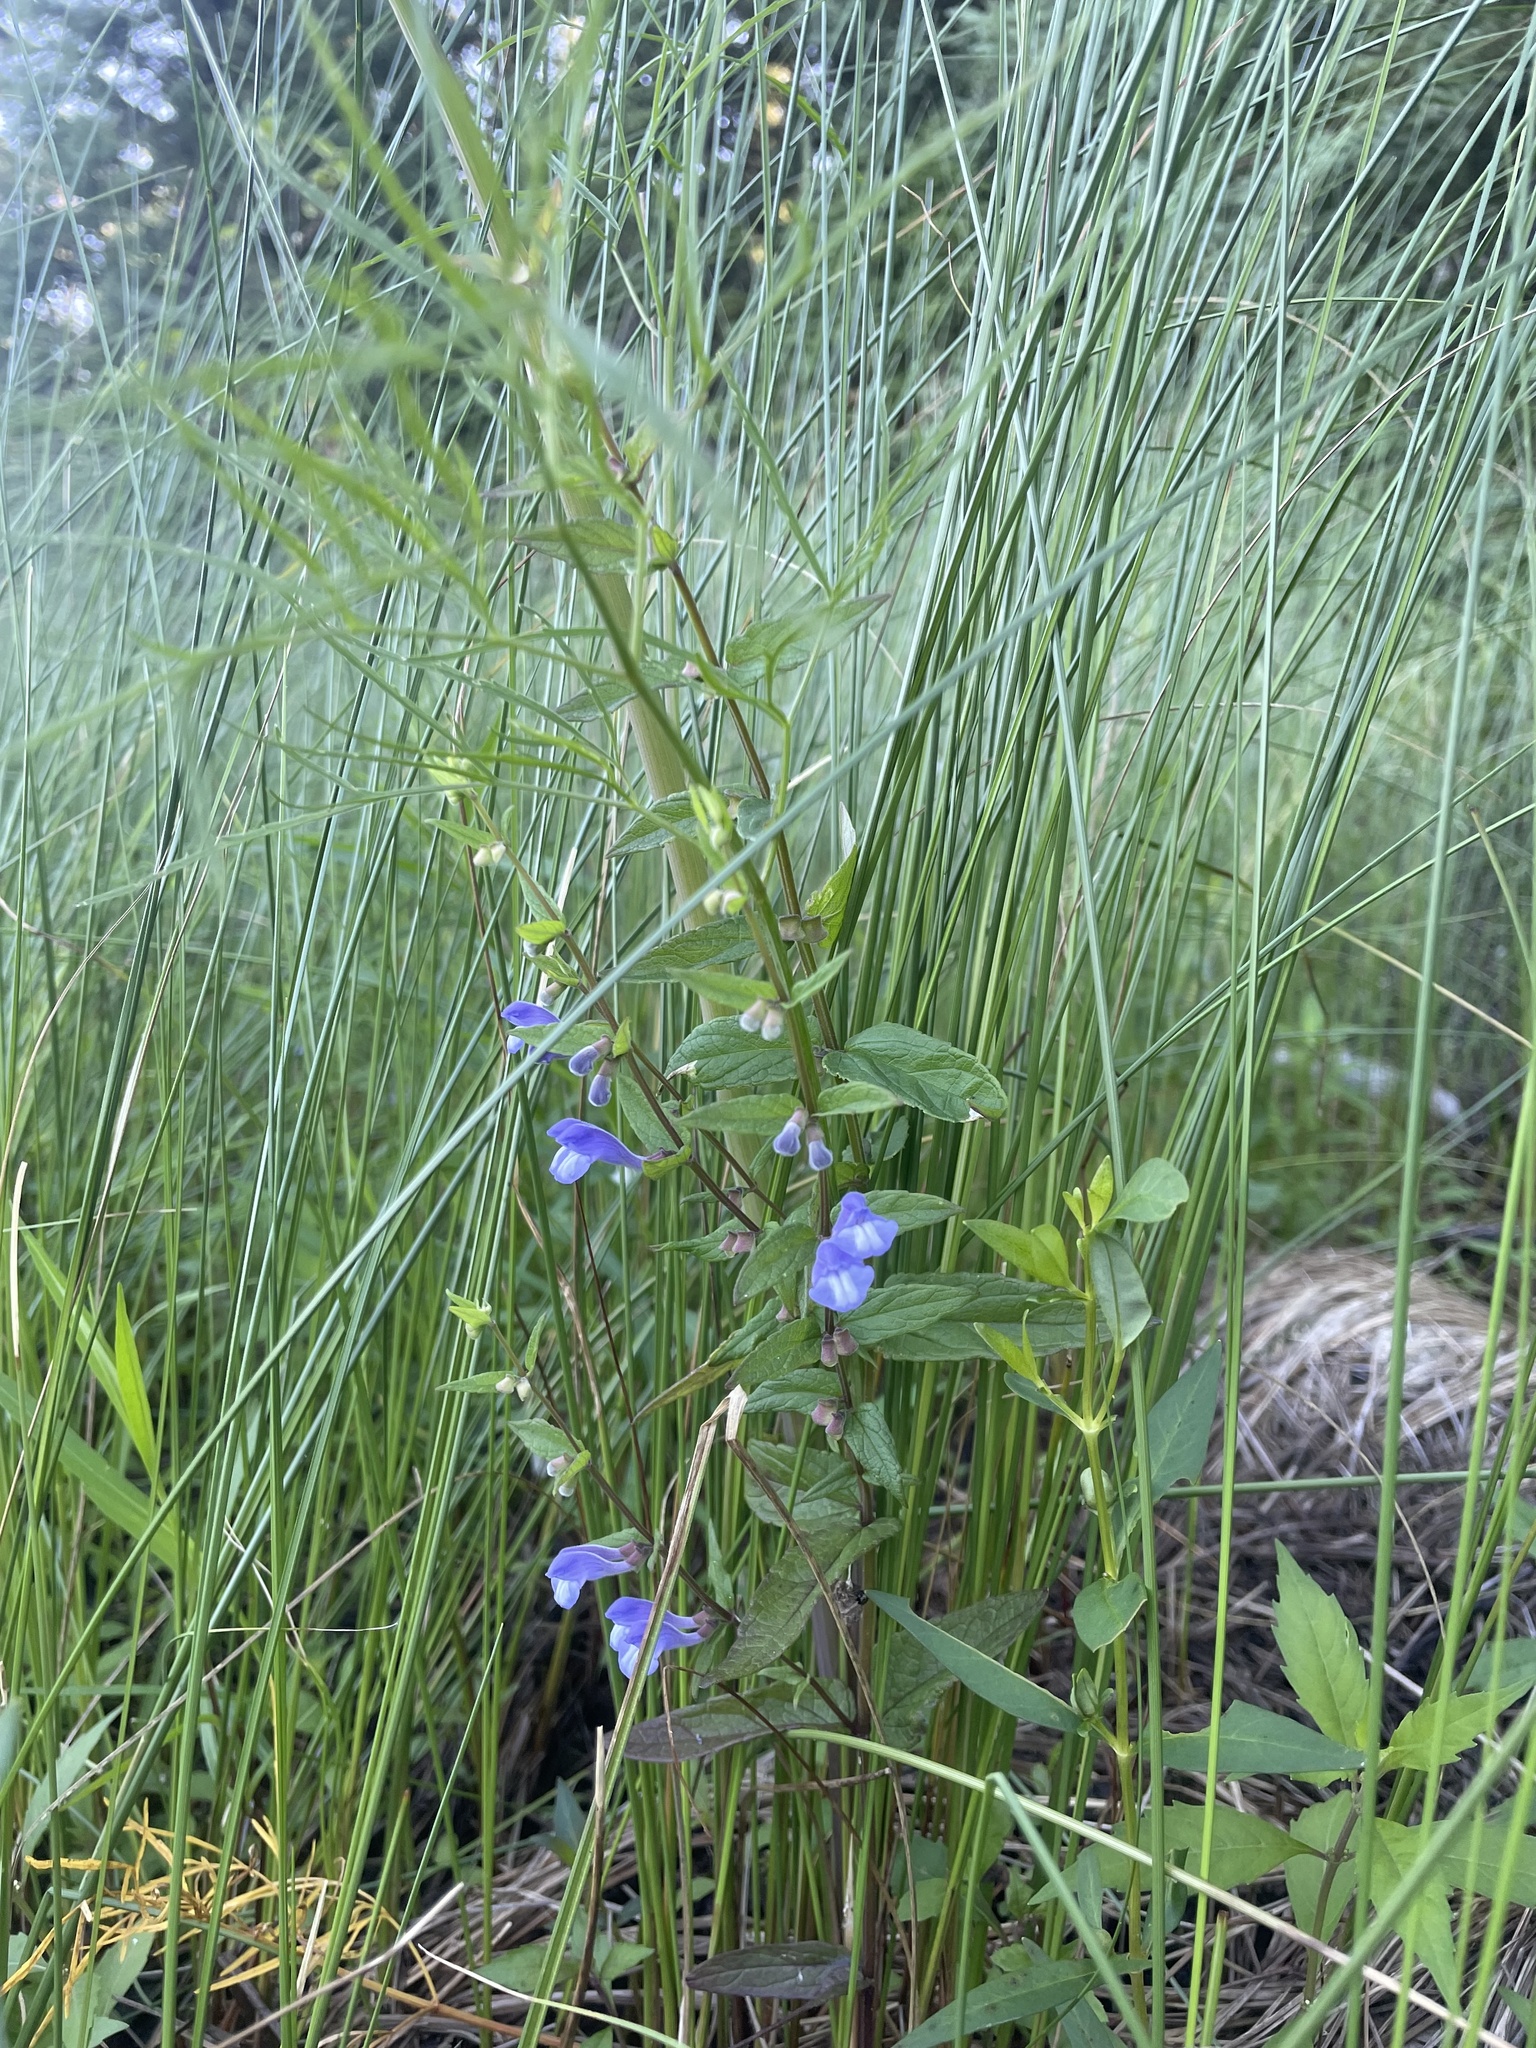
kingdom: Plantae
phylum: Tracheophyta
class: Magnoliopsida
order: Lamiales
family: Lamiaceae
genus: Scutellaria
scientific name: Scutellaria galericulata
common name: Skullcap
